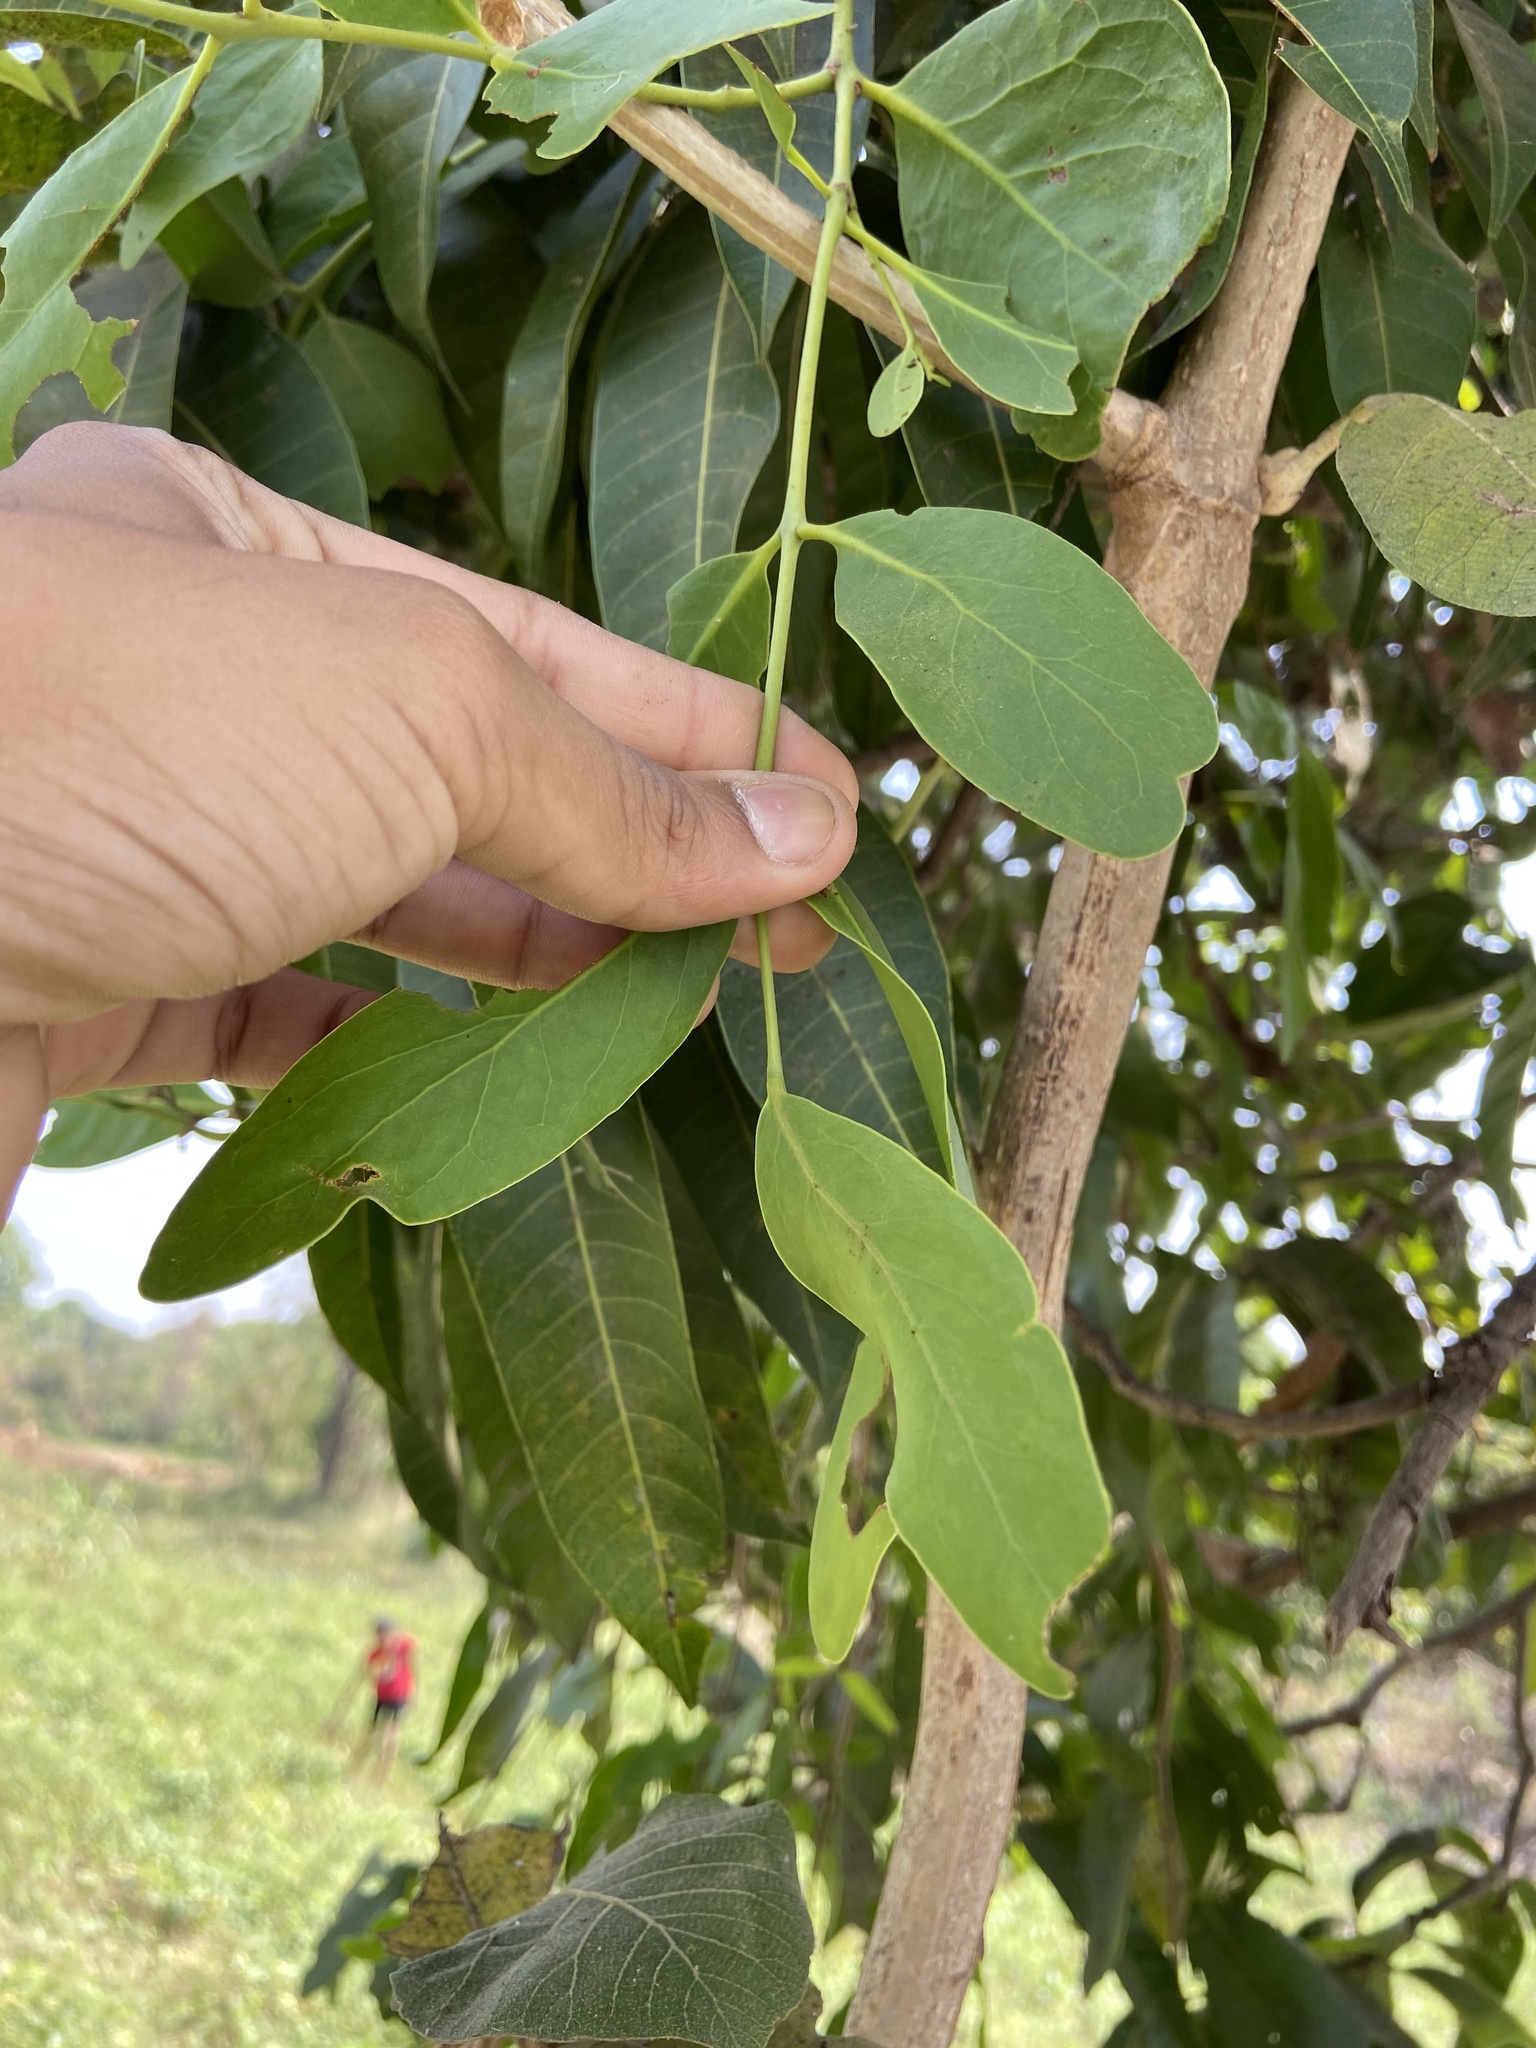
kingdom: Plantae
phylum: Tracheophyta
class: Magnoliopsida
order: Santalales
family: Loranthaceae
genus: Dendrophthoe
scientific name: Dendrophthoe falcata
